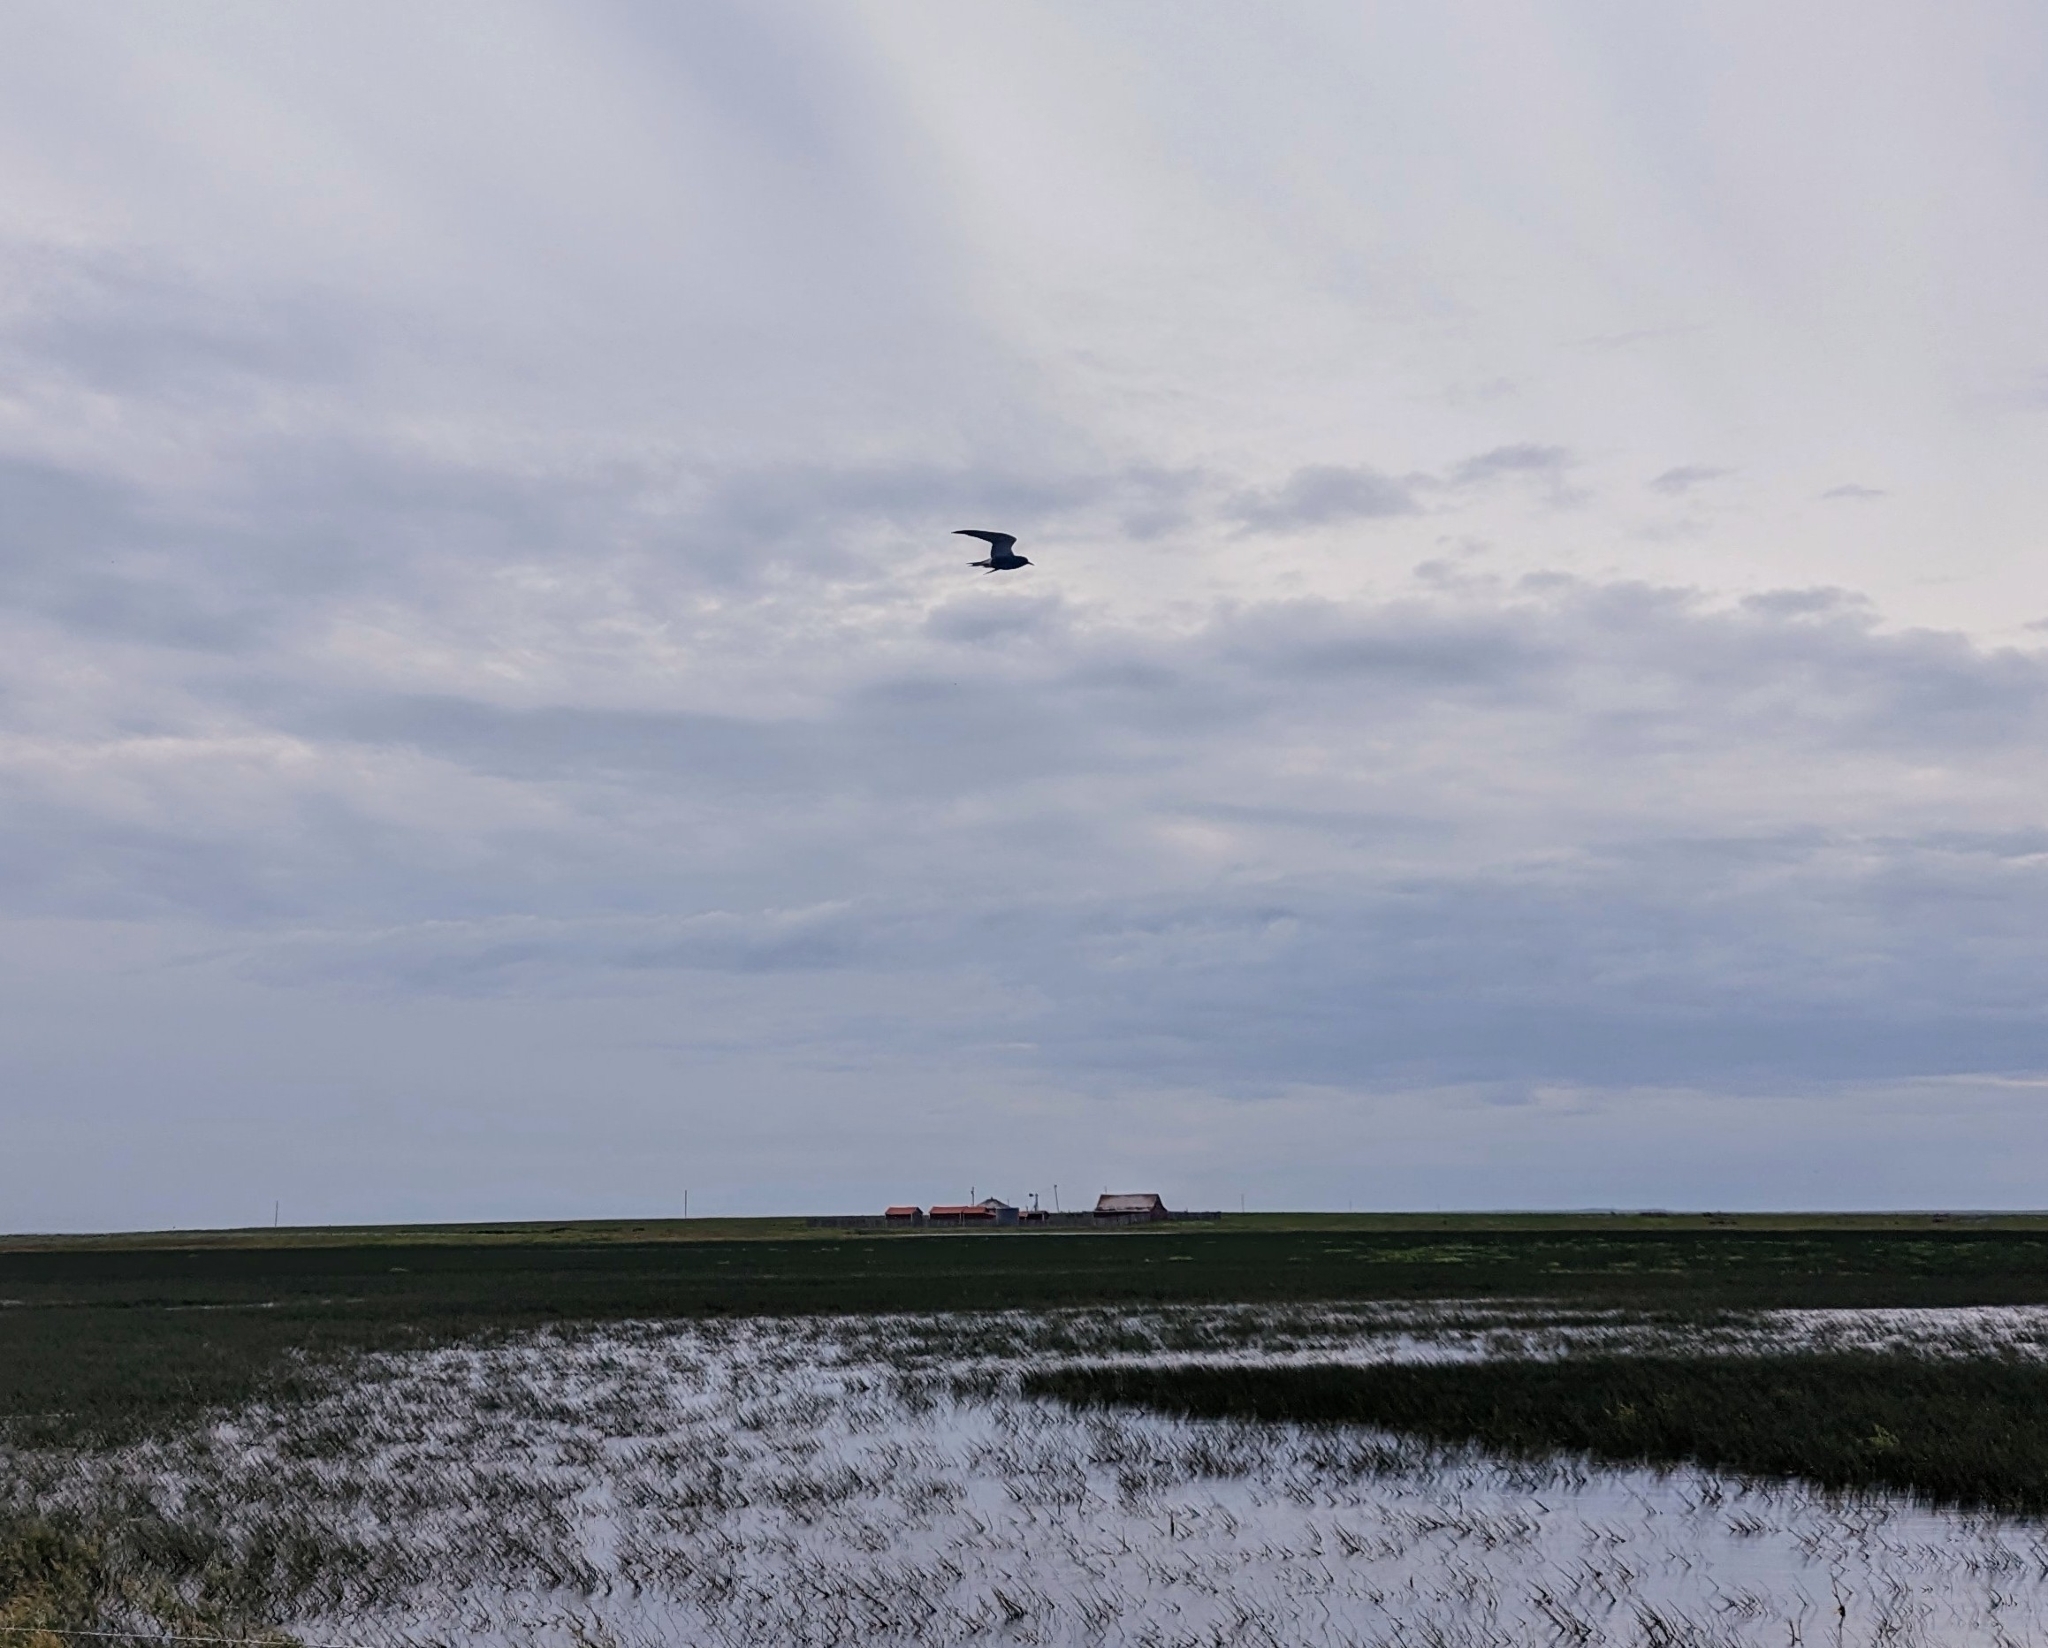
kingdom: Animalia
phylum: Chordata
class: Aves
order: Charadriiformes
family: Laridae
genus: Chlidonias
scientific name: Chlidonias niger
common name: Black tern
